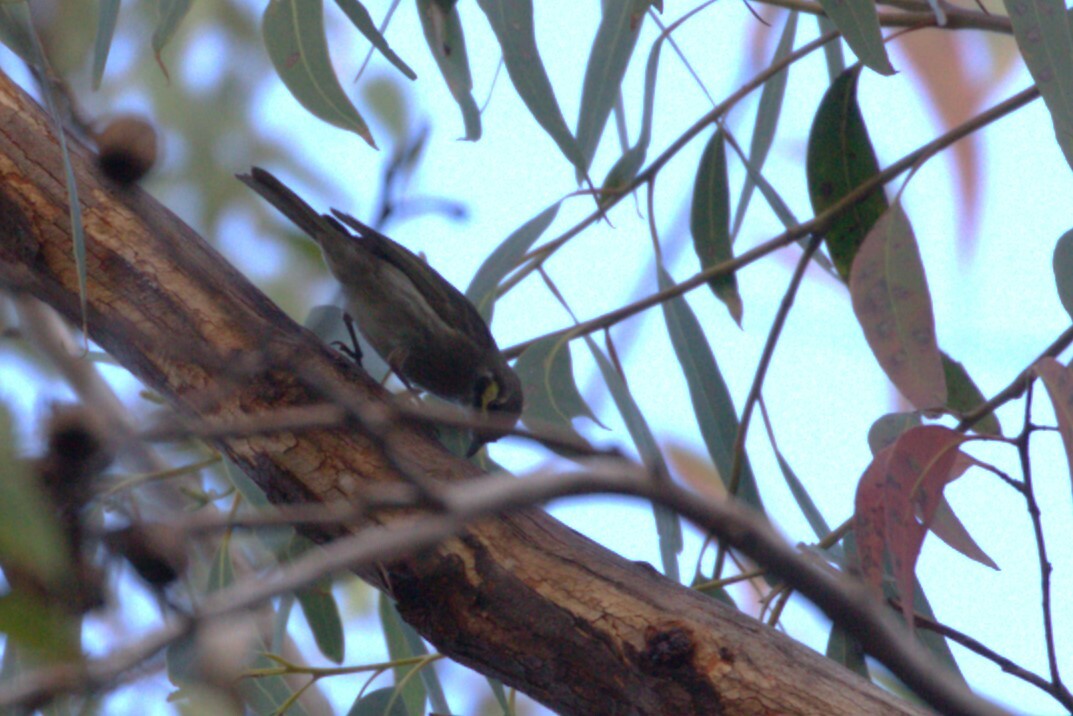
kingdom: Animalia
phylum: Chordata
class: Aves
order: Passeriformes
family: Meliphagidae
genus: Caligavis
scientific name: Caligavis chrysops
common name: Yellow-faced honeyeater
